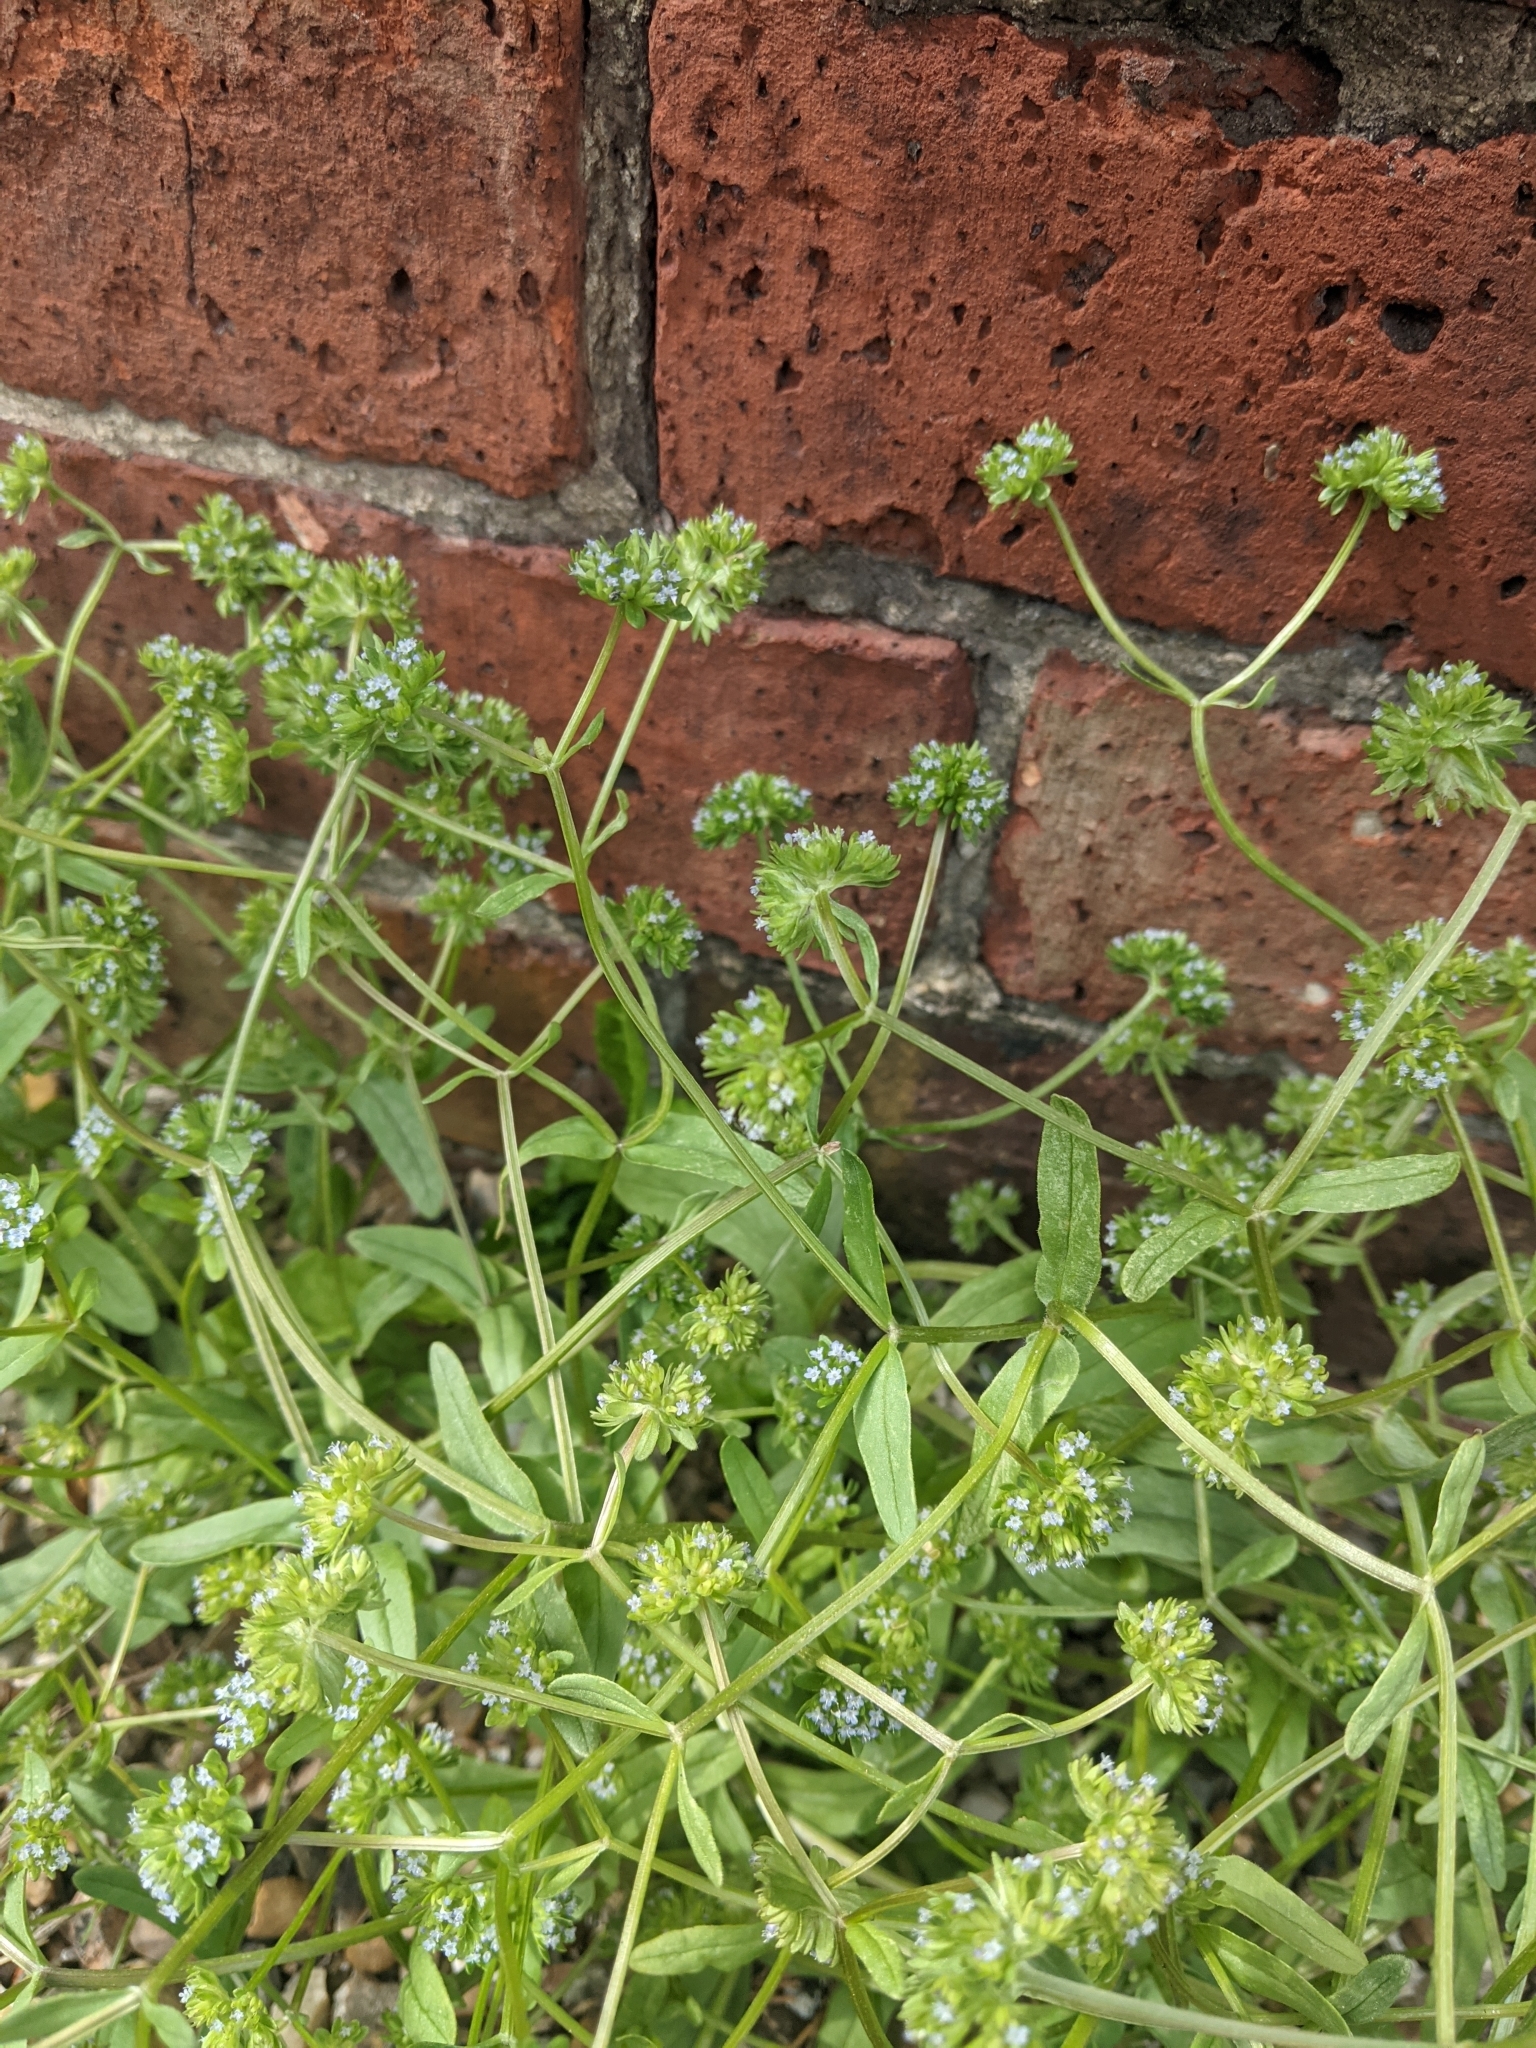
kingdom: Plantae
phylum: Tracheophyta
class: Magnoliopsida
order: Dipsacales
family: Caprifoliaceae
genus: Valerianella
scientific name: Valerianella carinata
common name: Keeled-fruited cornsalad
